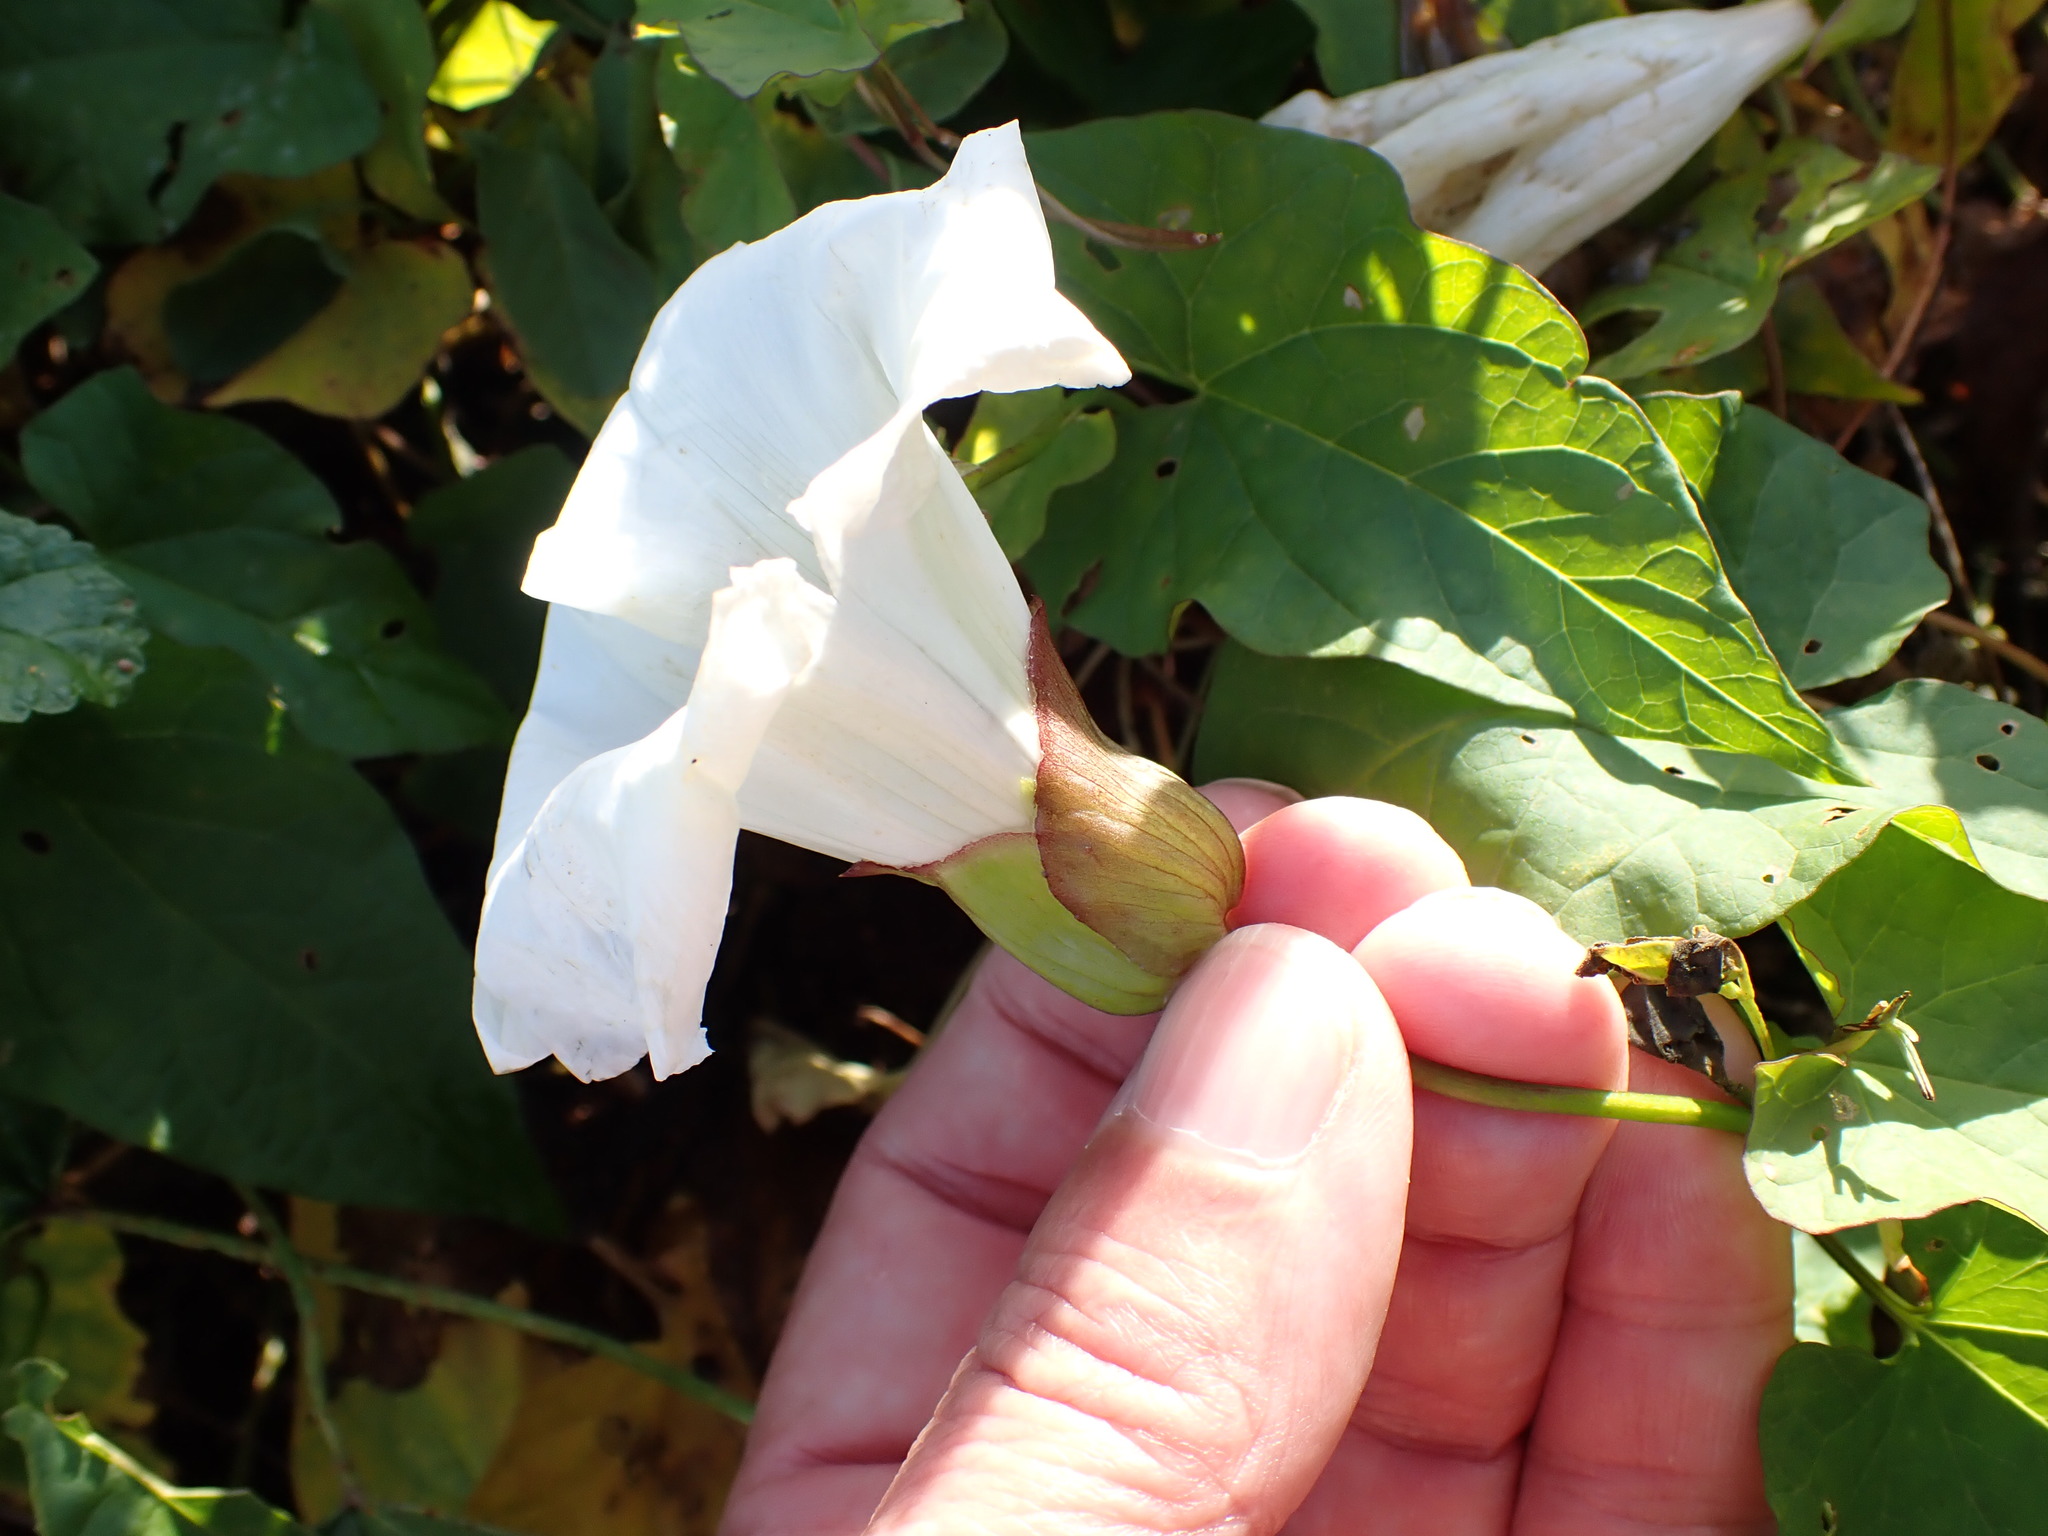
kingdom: Plantae
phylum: Tracheophyta
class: Magnoliopsida
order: Solanales
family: Convolvulaceae
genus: Calystegia
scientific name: Calystegia silvatica
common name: Large bindweed
